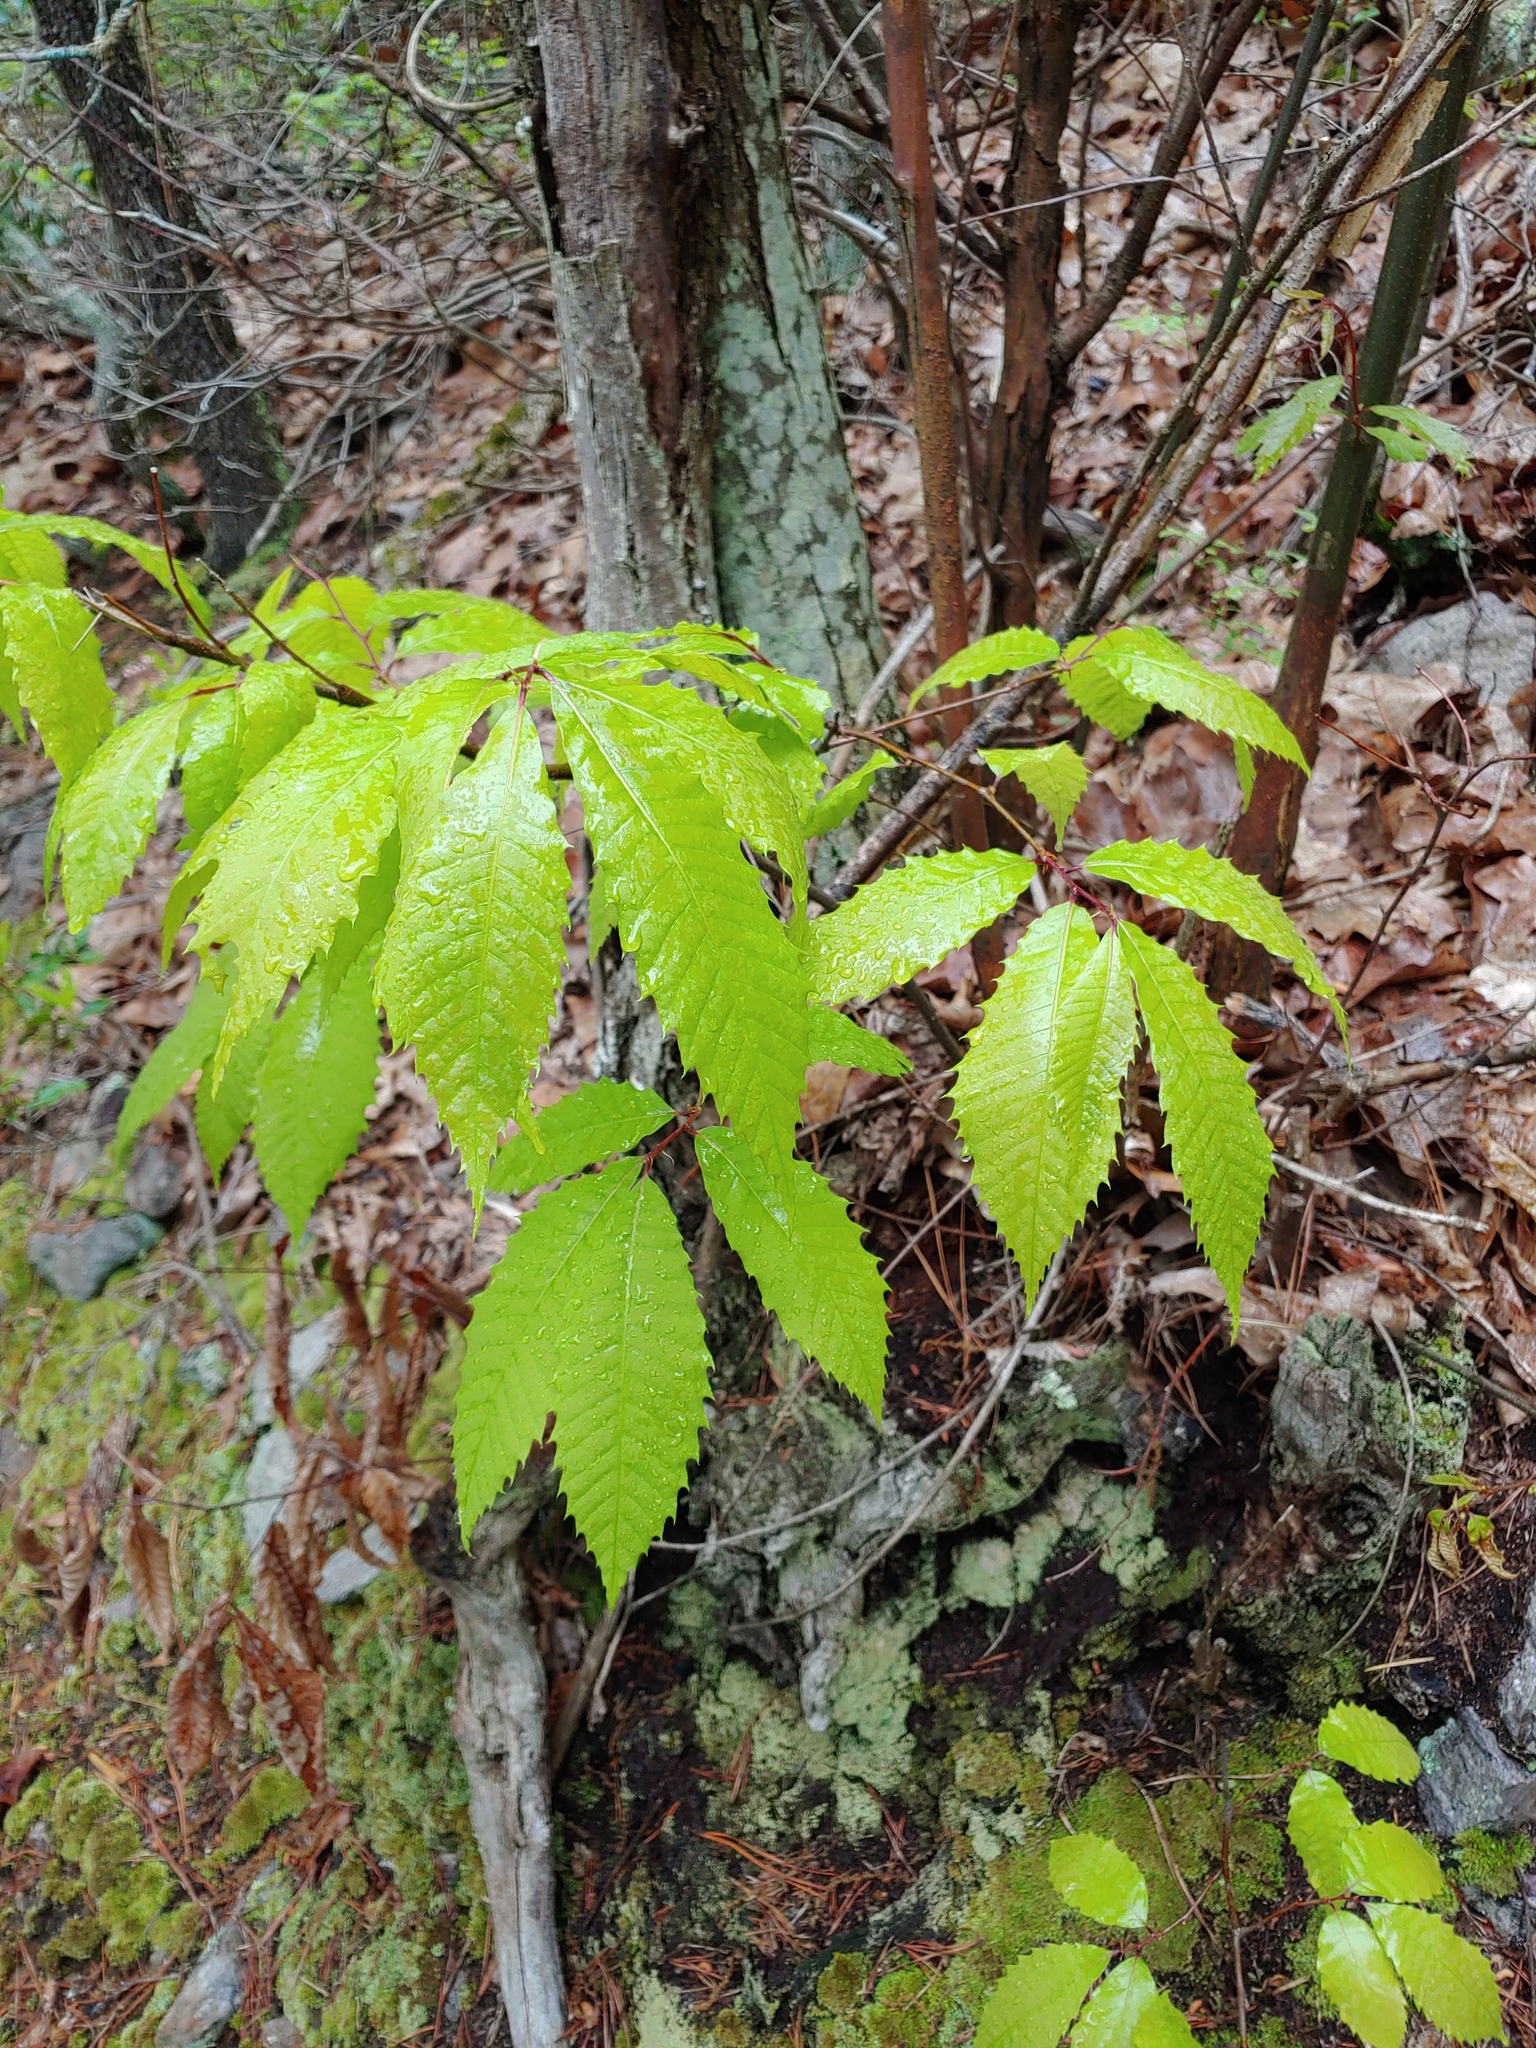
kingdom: Plantae
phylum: Tracheophyta
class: Magnoliopsida
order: Fagales
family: Fagaceae
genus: Castanea
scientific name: Castanea dentata
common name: American chestnut
